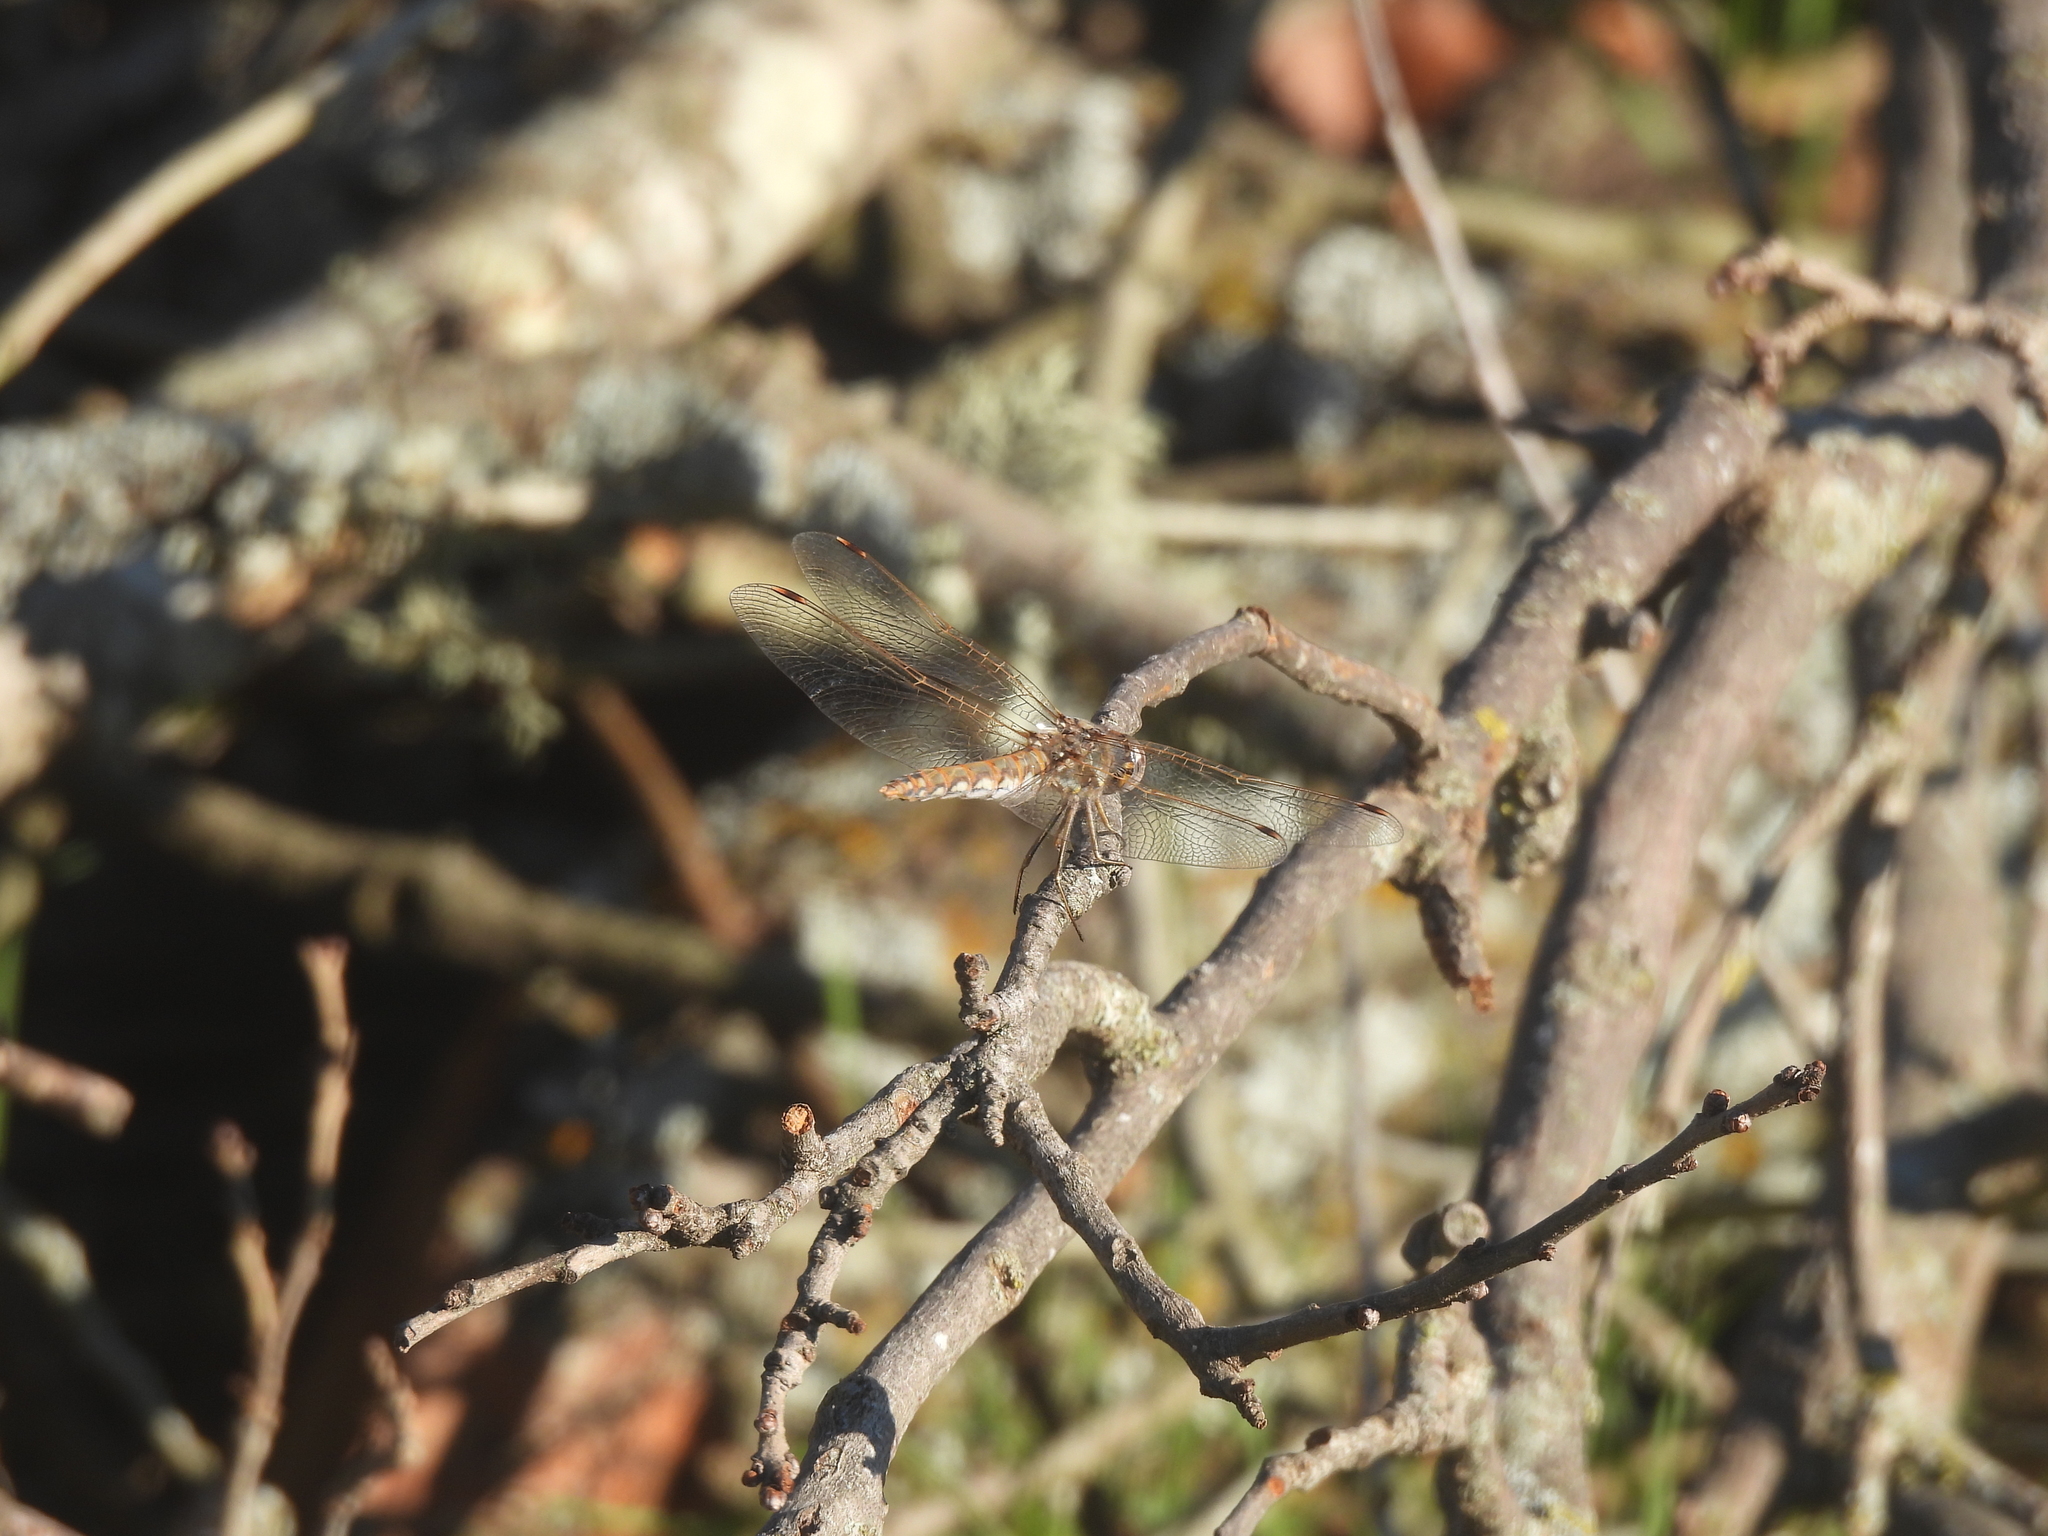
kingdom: Animalia
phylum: Arthropoda
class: Insecta
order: Odonata
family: Libellulidae
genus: Sympetrum
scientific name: Sympetrum corruptum
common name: Variegated meadowhawk
